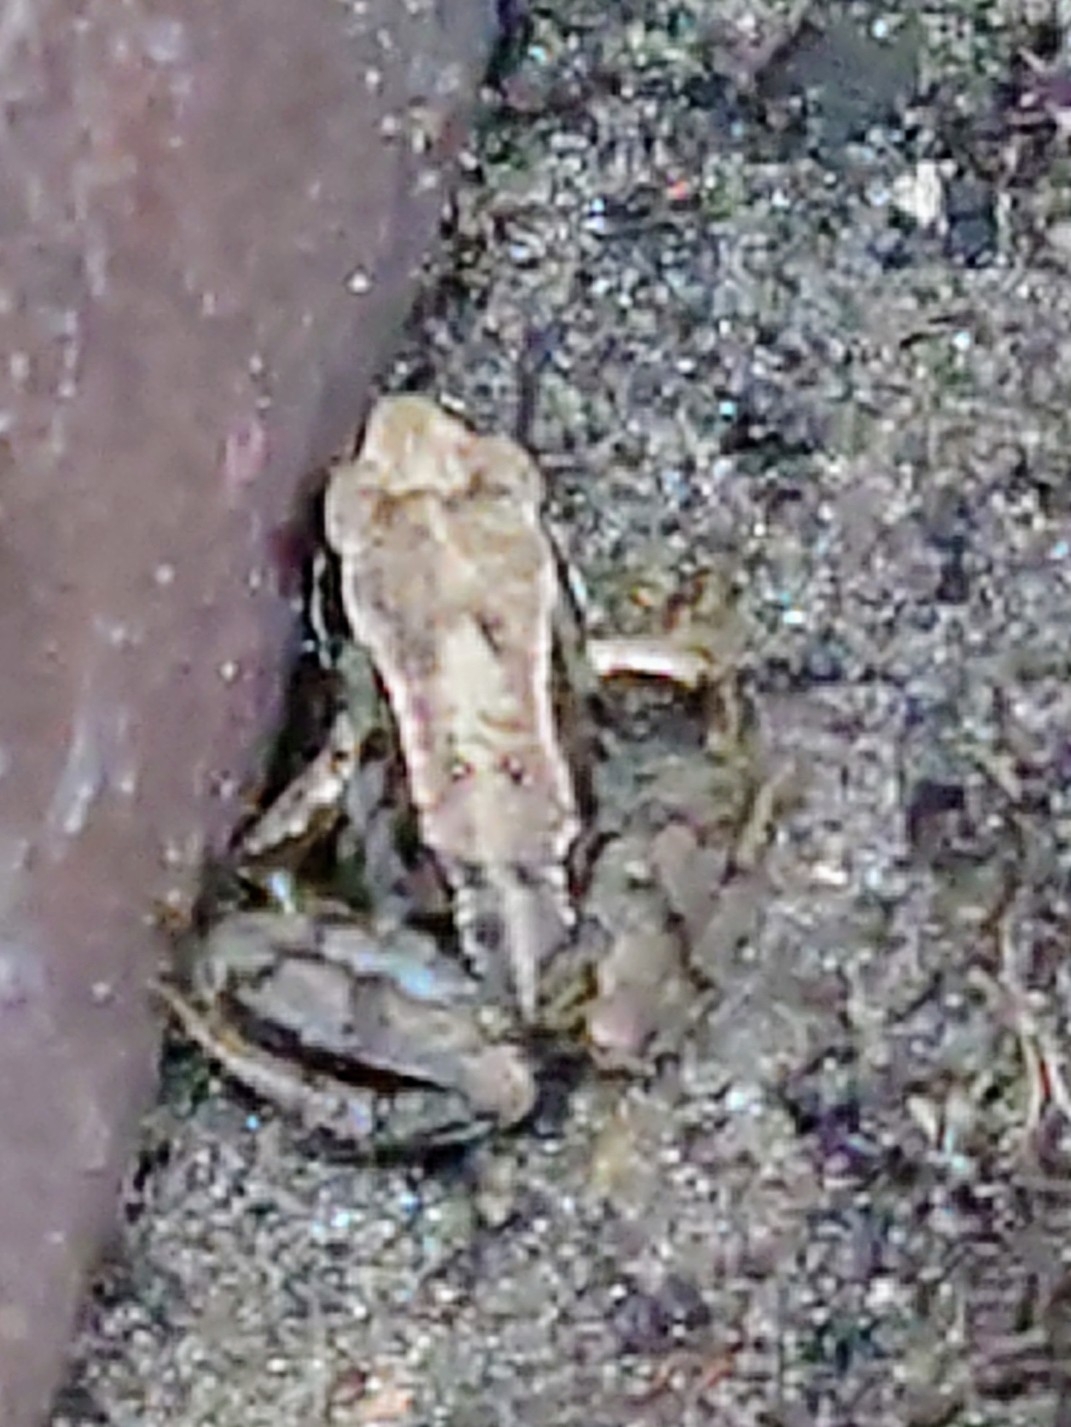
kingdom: Animalia
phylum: Chordata
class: Amphibia
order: Anura
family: Ranidae
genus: Rana
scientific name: Rana temporaria
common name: Common frog
